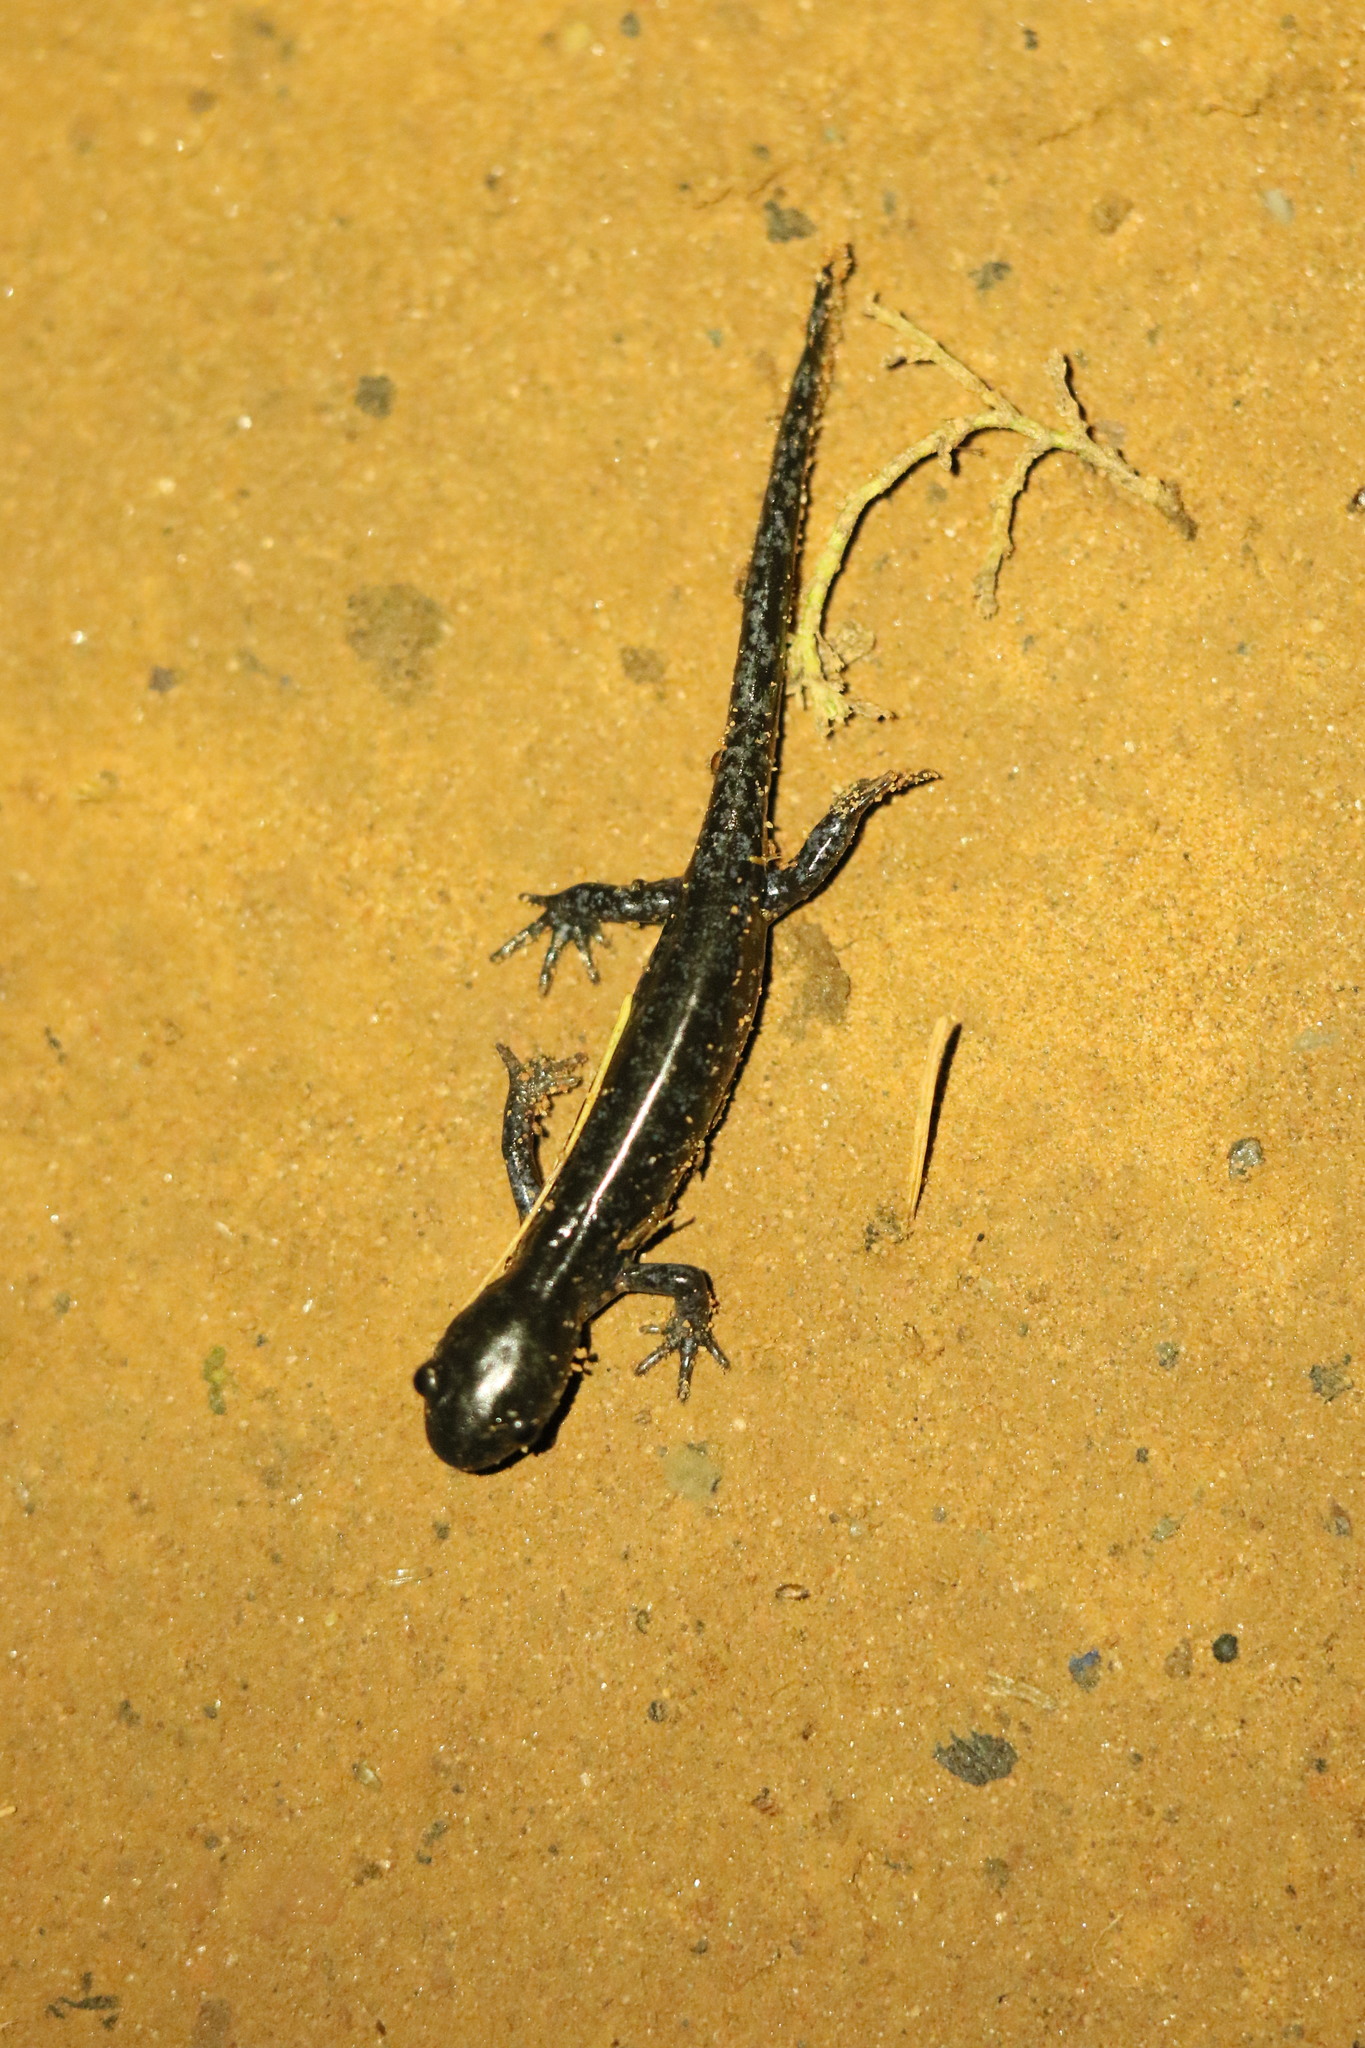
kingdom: Animalia
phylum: Chordata
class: Amphibia
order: Caudata
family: Ambystomatidae
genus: Ambystoma
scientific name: Ambystoma maculatum
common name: Spotted salamander
